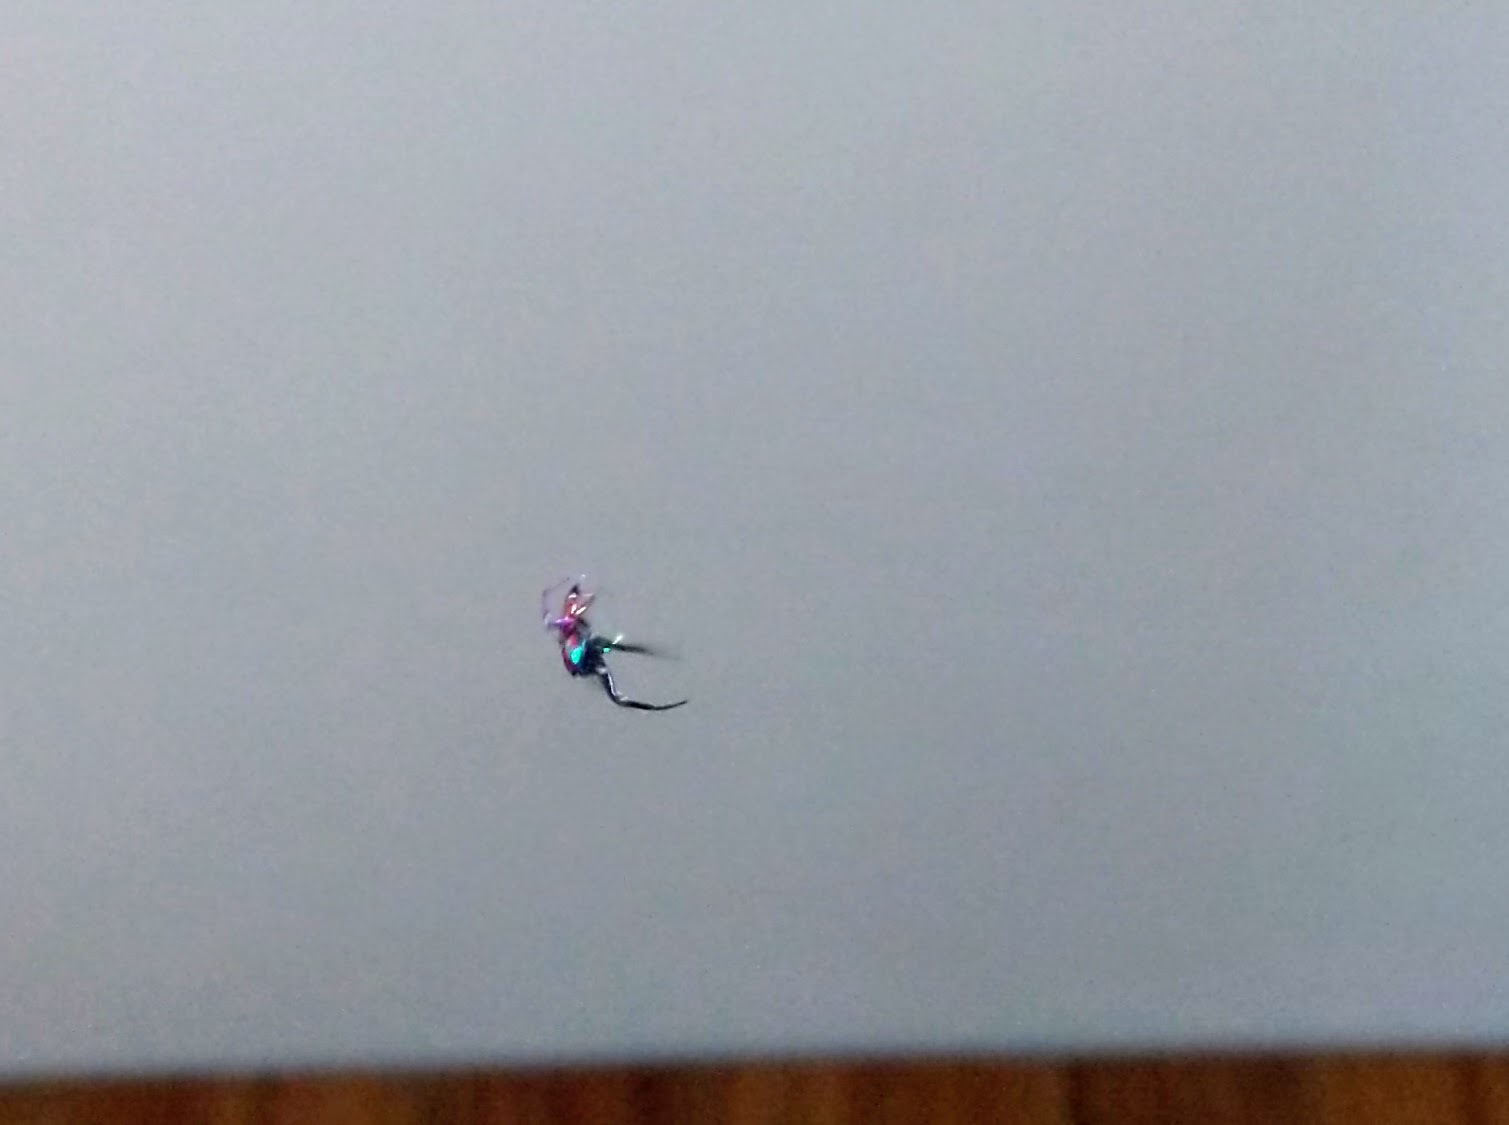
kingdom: Animalia
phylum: Arthropoda
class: Arachnida
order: Araneae
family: Salticidae
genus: Chrysilla
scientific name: Chrysilla volupe
